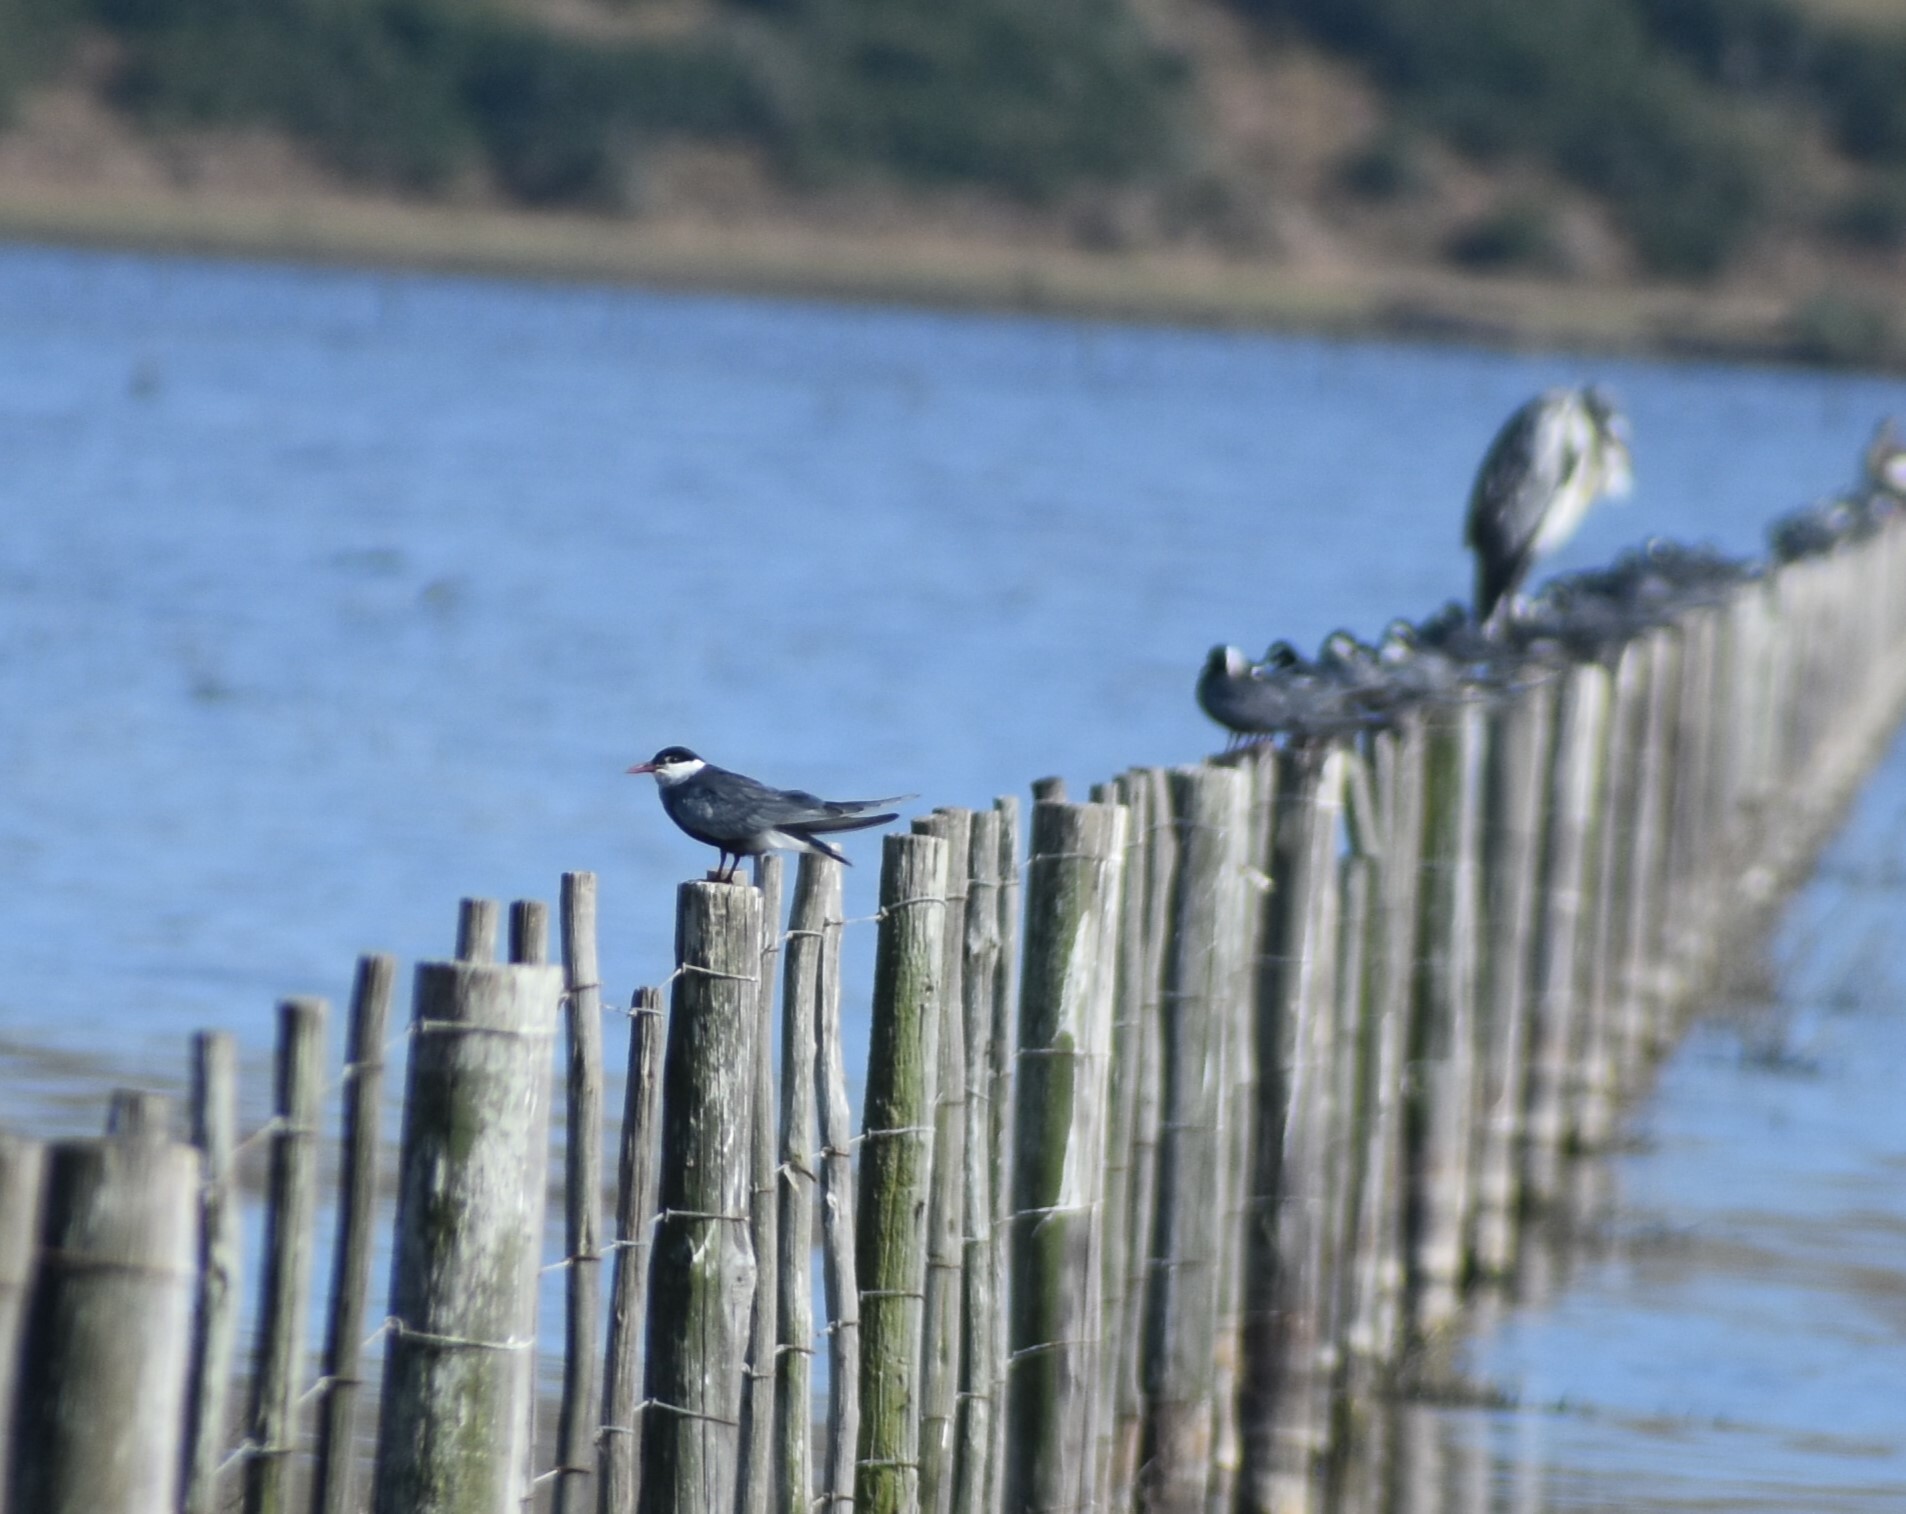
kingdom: Animalia
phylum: Chordata
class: Aves
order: Charadriiformes
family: Laridae
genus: Chlidonias
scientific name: Chlidonias hybrida
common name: Whiskered tern
